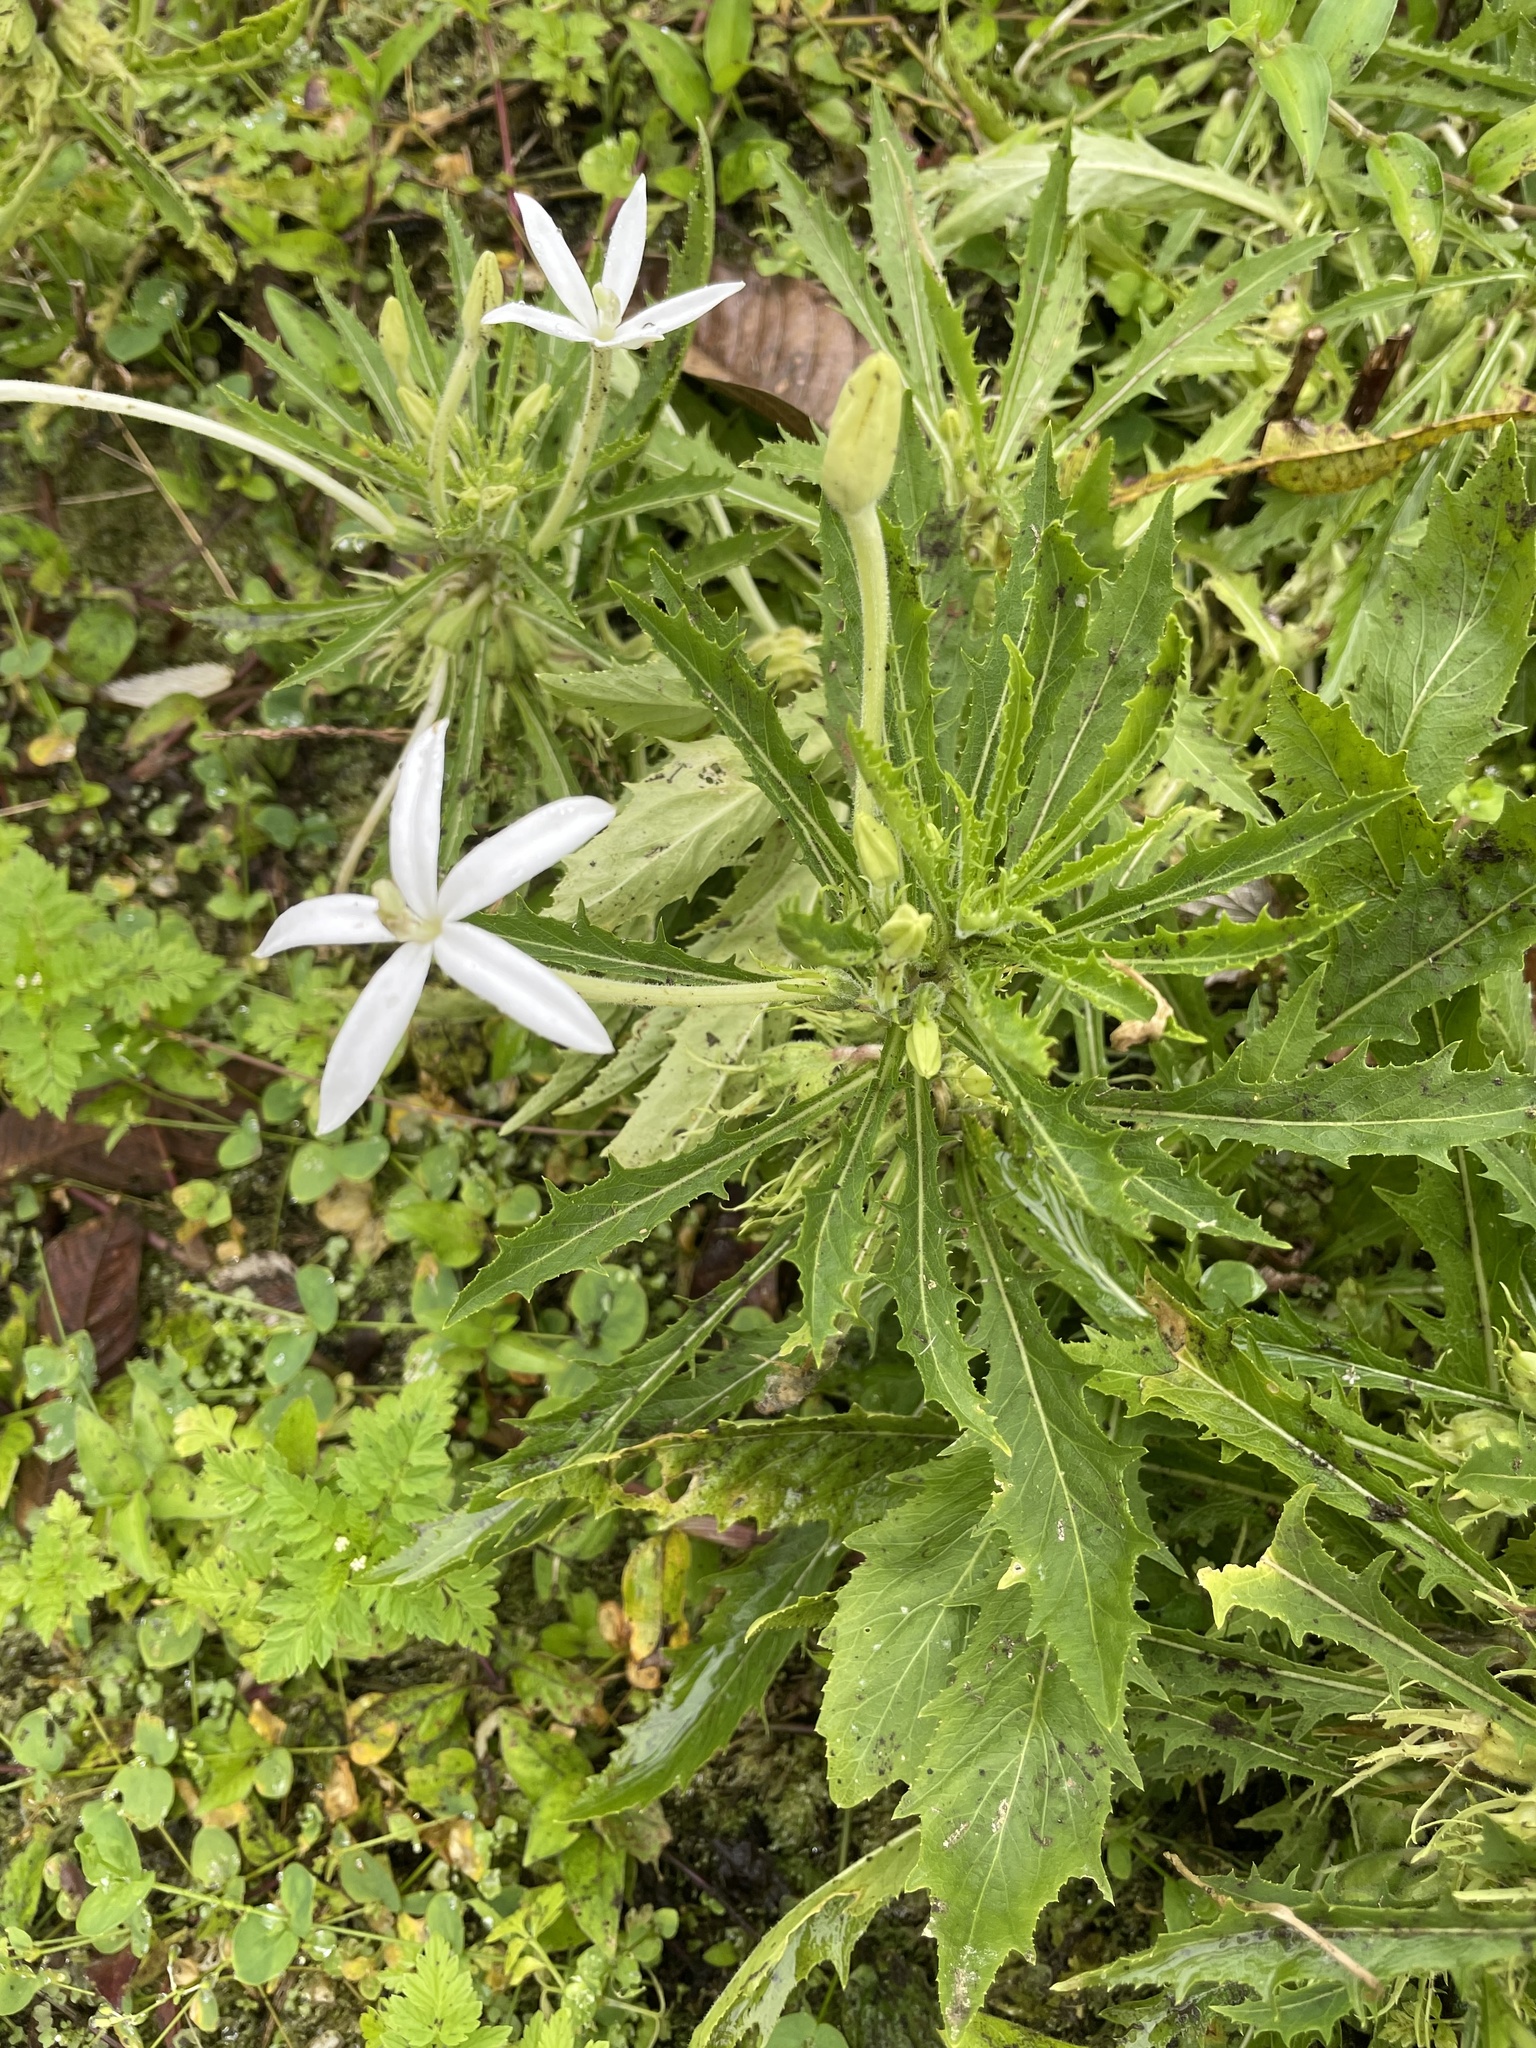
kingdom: Plantae
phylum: Tracheophyta
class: Magnoliopsida
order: Asterales
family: Campanulaceae
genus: Hippobroma
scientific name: Hippobroma longiflora
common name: Madamfate
